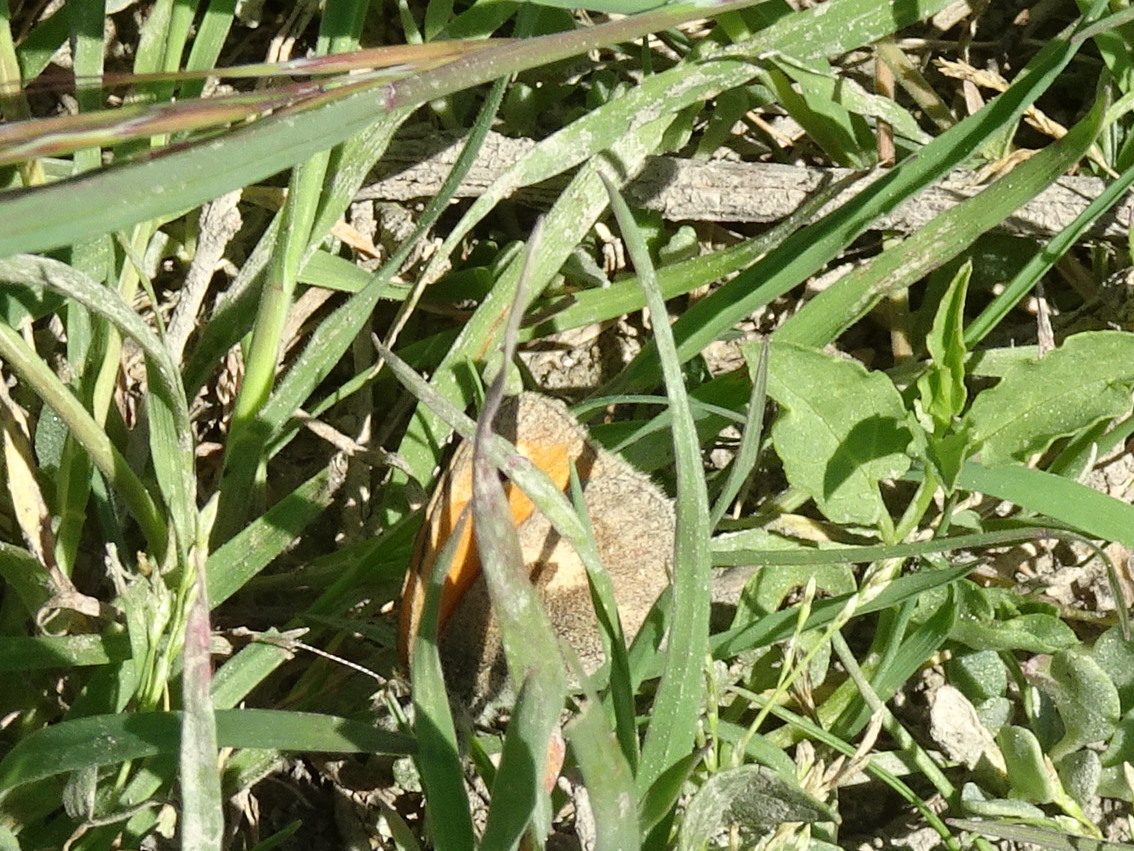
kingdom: Animalia
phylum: Arthropoda
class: Insecta
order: Lepidoptera
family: Nymphalidae
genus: Coenonympha
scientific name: Coenonympha pamphilus
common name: Small heath
